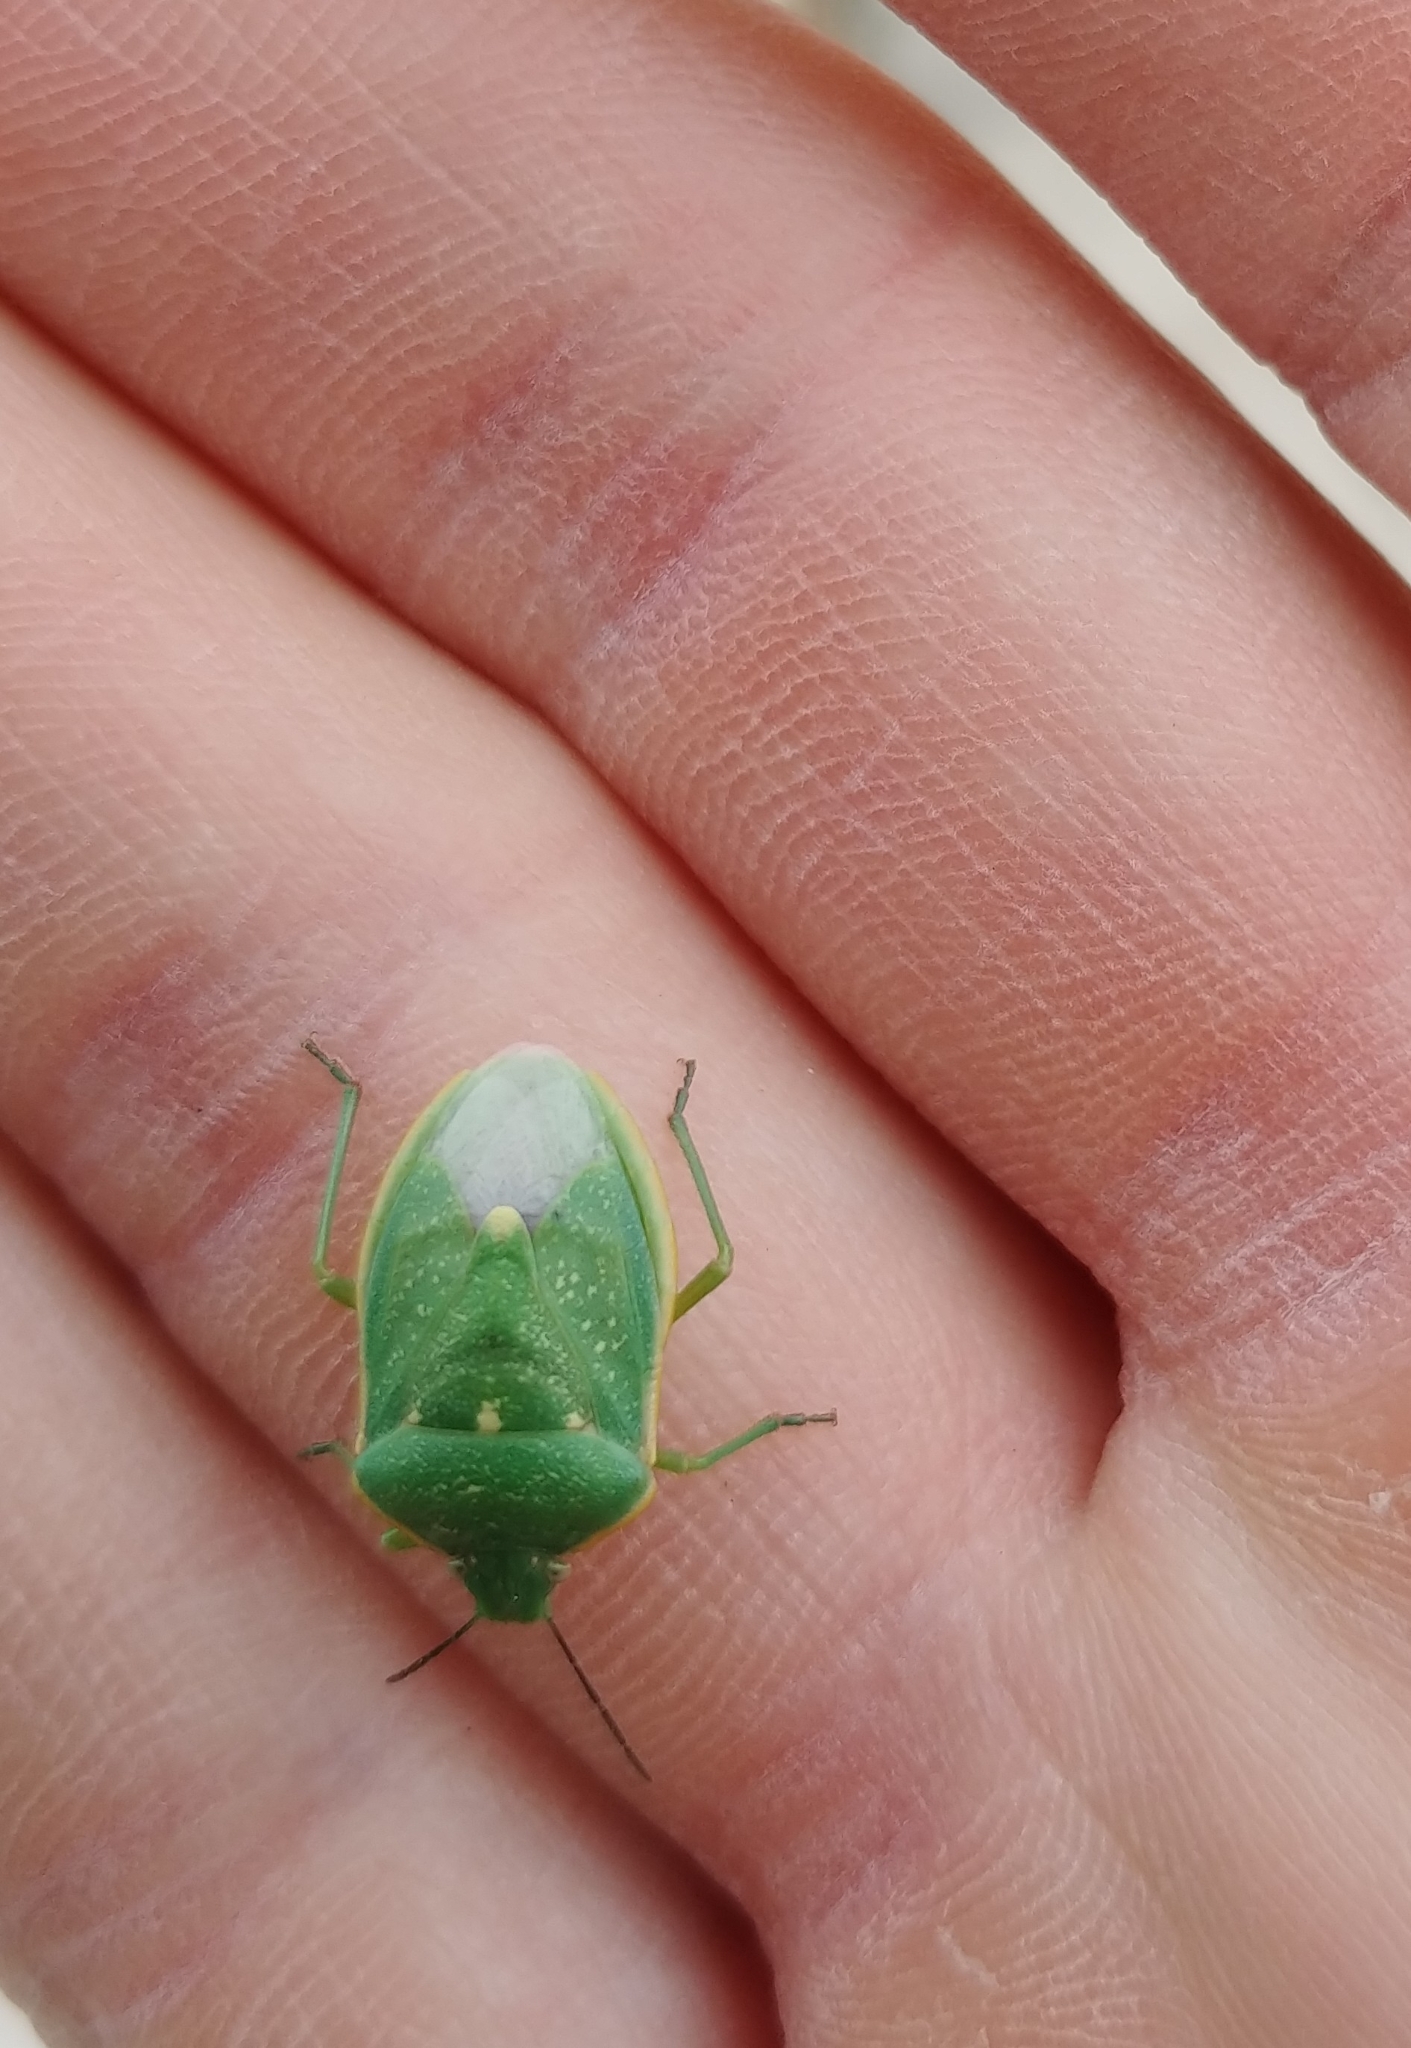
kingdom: Animalia
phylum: Arthropoda
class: Insecta
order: Hemiptera
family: Pentatomidae
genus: Chlorochroa
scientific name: Chlorochroa uhleri
